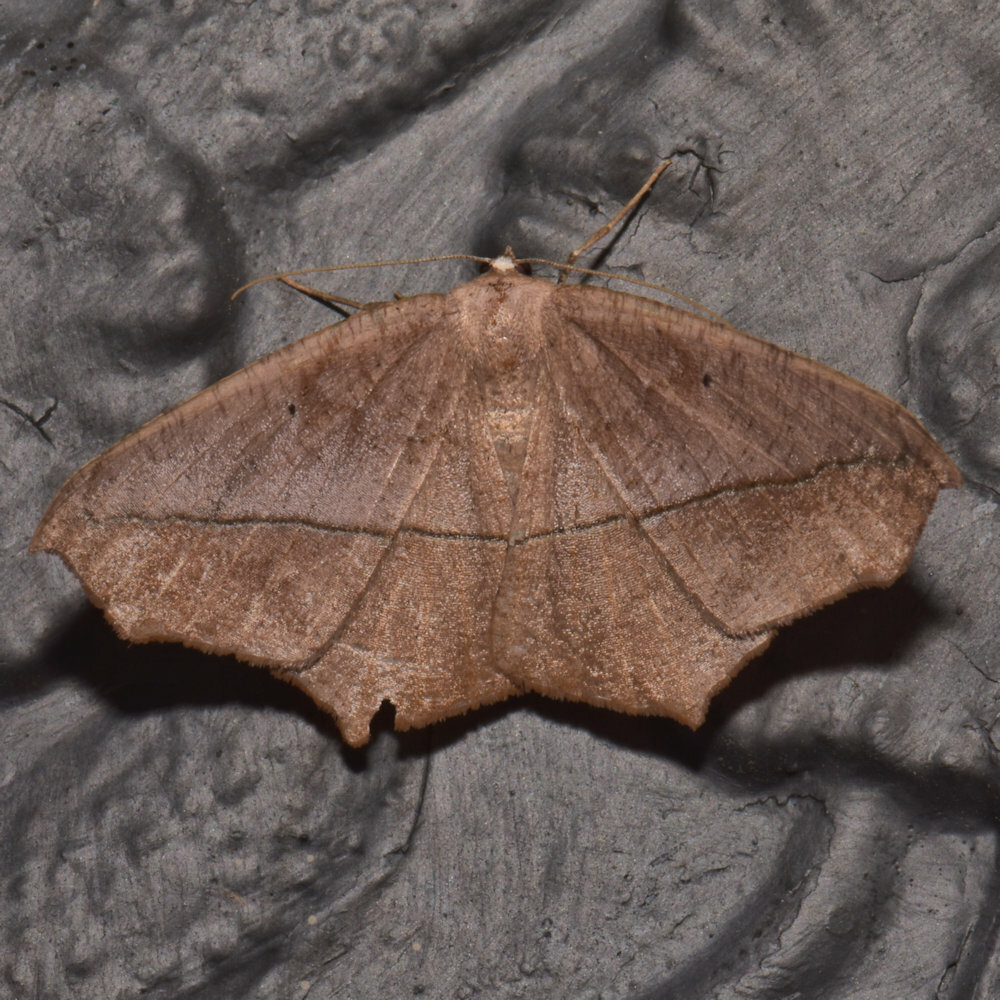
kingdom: Animalia
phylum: Arthropoda
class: Insecta
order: Lepidoptera
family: Geometridae
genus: Prochoerodes
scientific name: Prochoerodes lineola
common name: Large maple spanworm
